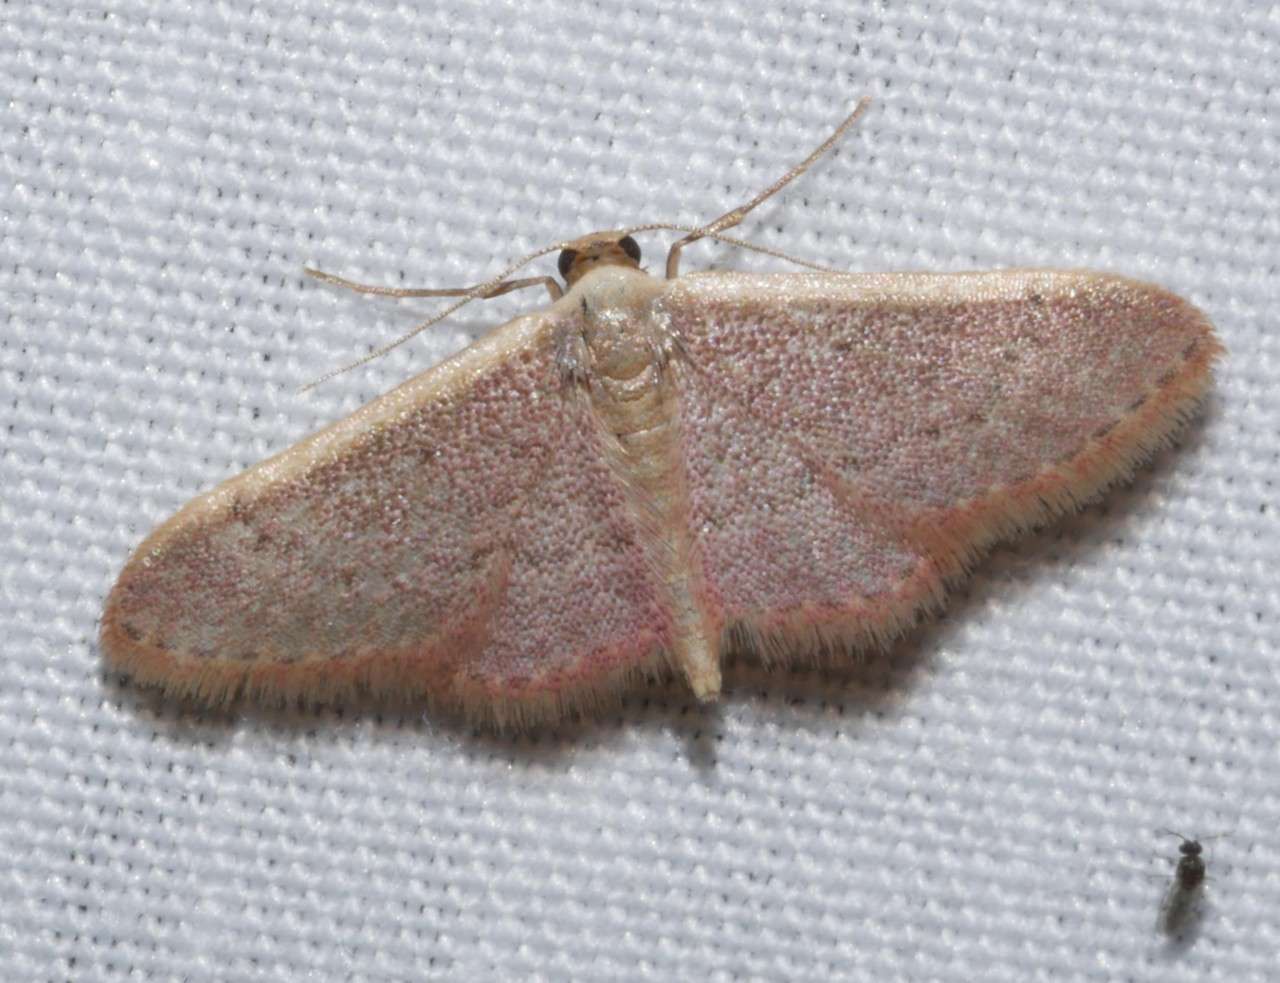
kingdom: Animalia
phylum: Arthropoda
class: Insecta
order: Lepidoptera
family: Geometridae
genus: Idaea
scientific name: Idaea costaria
